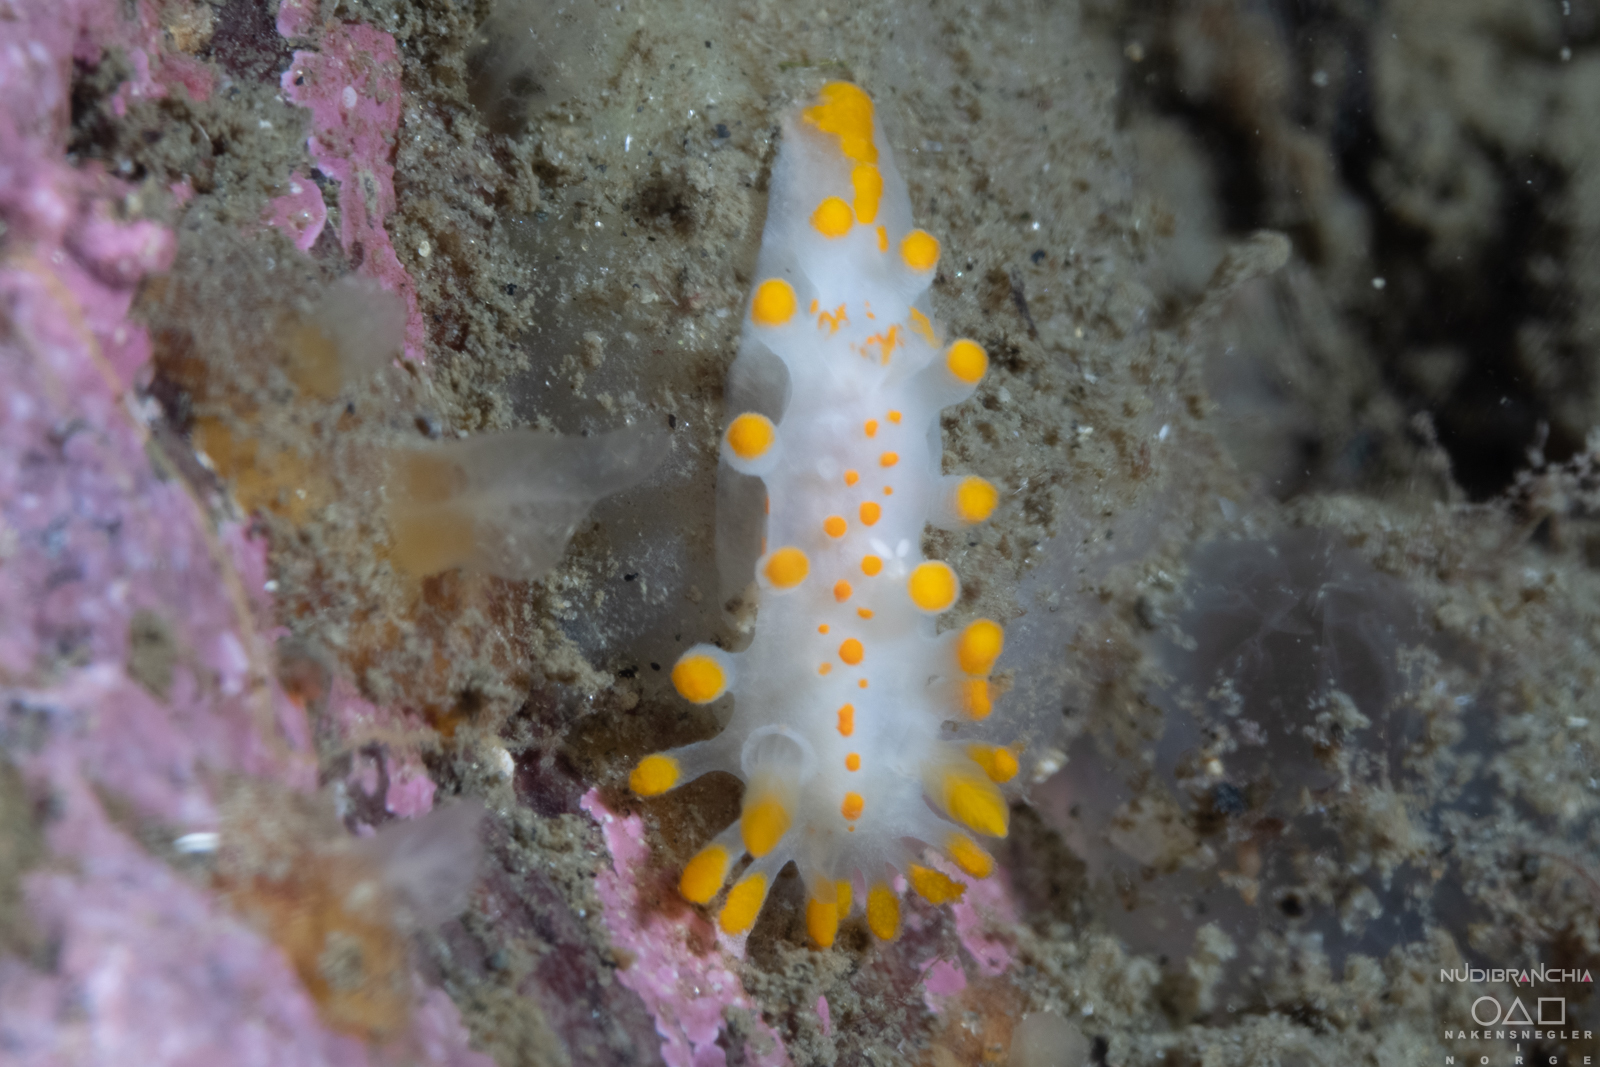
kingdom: Animalia
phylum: Mollusca
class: Gastropoda
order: Nudibranchia
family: Polyceridae
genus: Limacia
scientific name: Limacia clavigera
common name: Orange-clubbed sea slug
